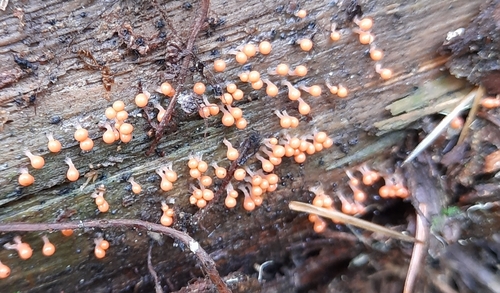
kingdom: Protozoa
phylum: Mycetozoa
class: Myxomycetes
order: Trichiales
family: Arcyriaceae
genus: Hemitrichia
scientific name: Hemitrichia decipiens
